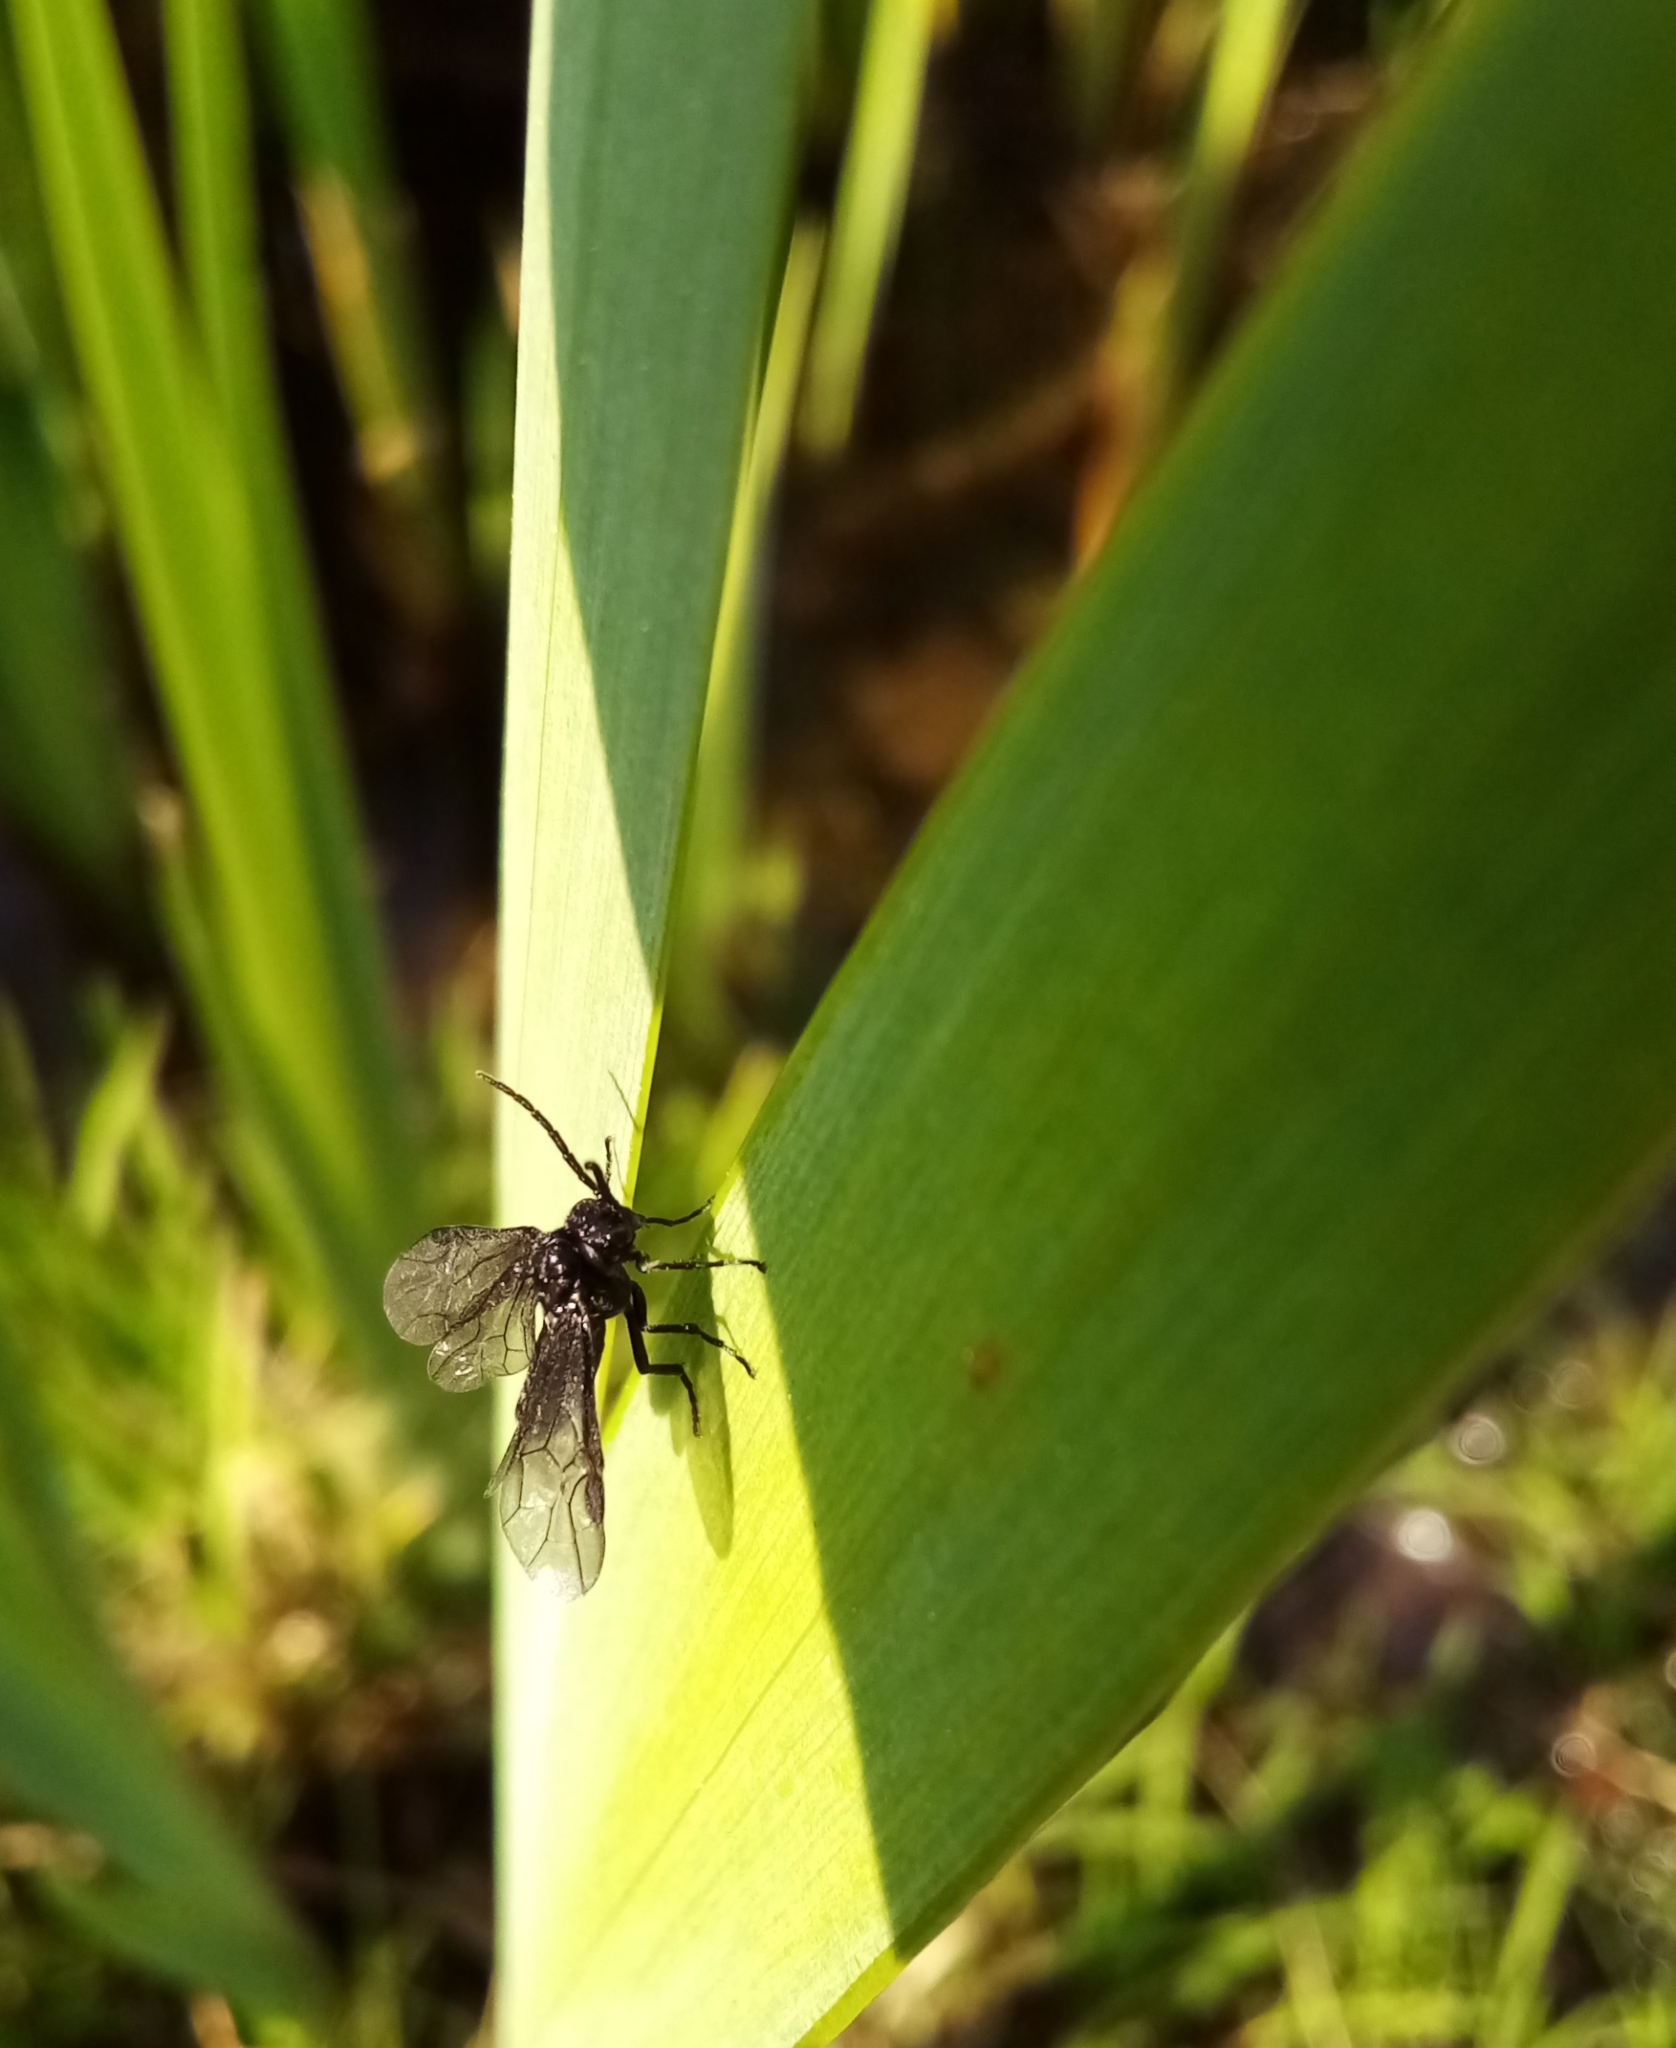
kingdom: Animalia
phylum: Arthropoda
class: Insecta
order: Hymenoptera
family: Tenthredinidae
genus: Rhadinoceraea
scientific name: Rhadinoceraea micans
